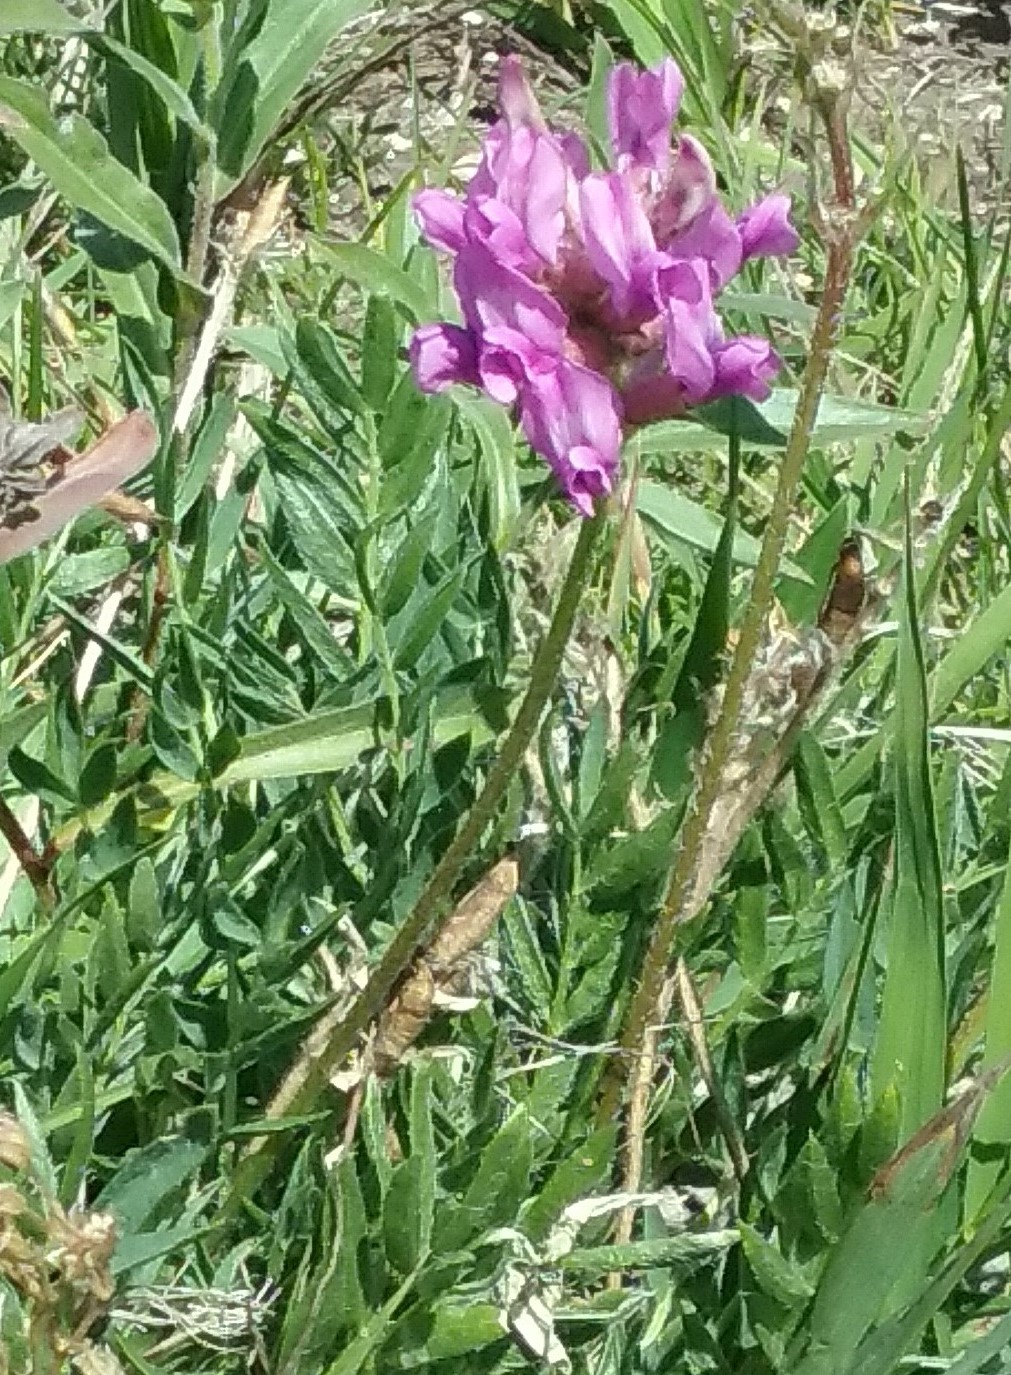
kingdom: Plantae
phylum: Tracheophyta
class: Magnoliopsida
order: Fabales
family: Fabaceae
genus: Oxytropis
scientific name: Oxytropis lambertii
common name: Purple locoweed
